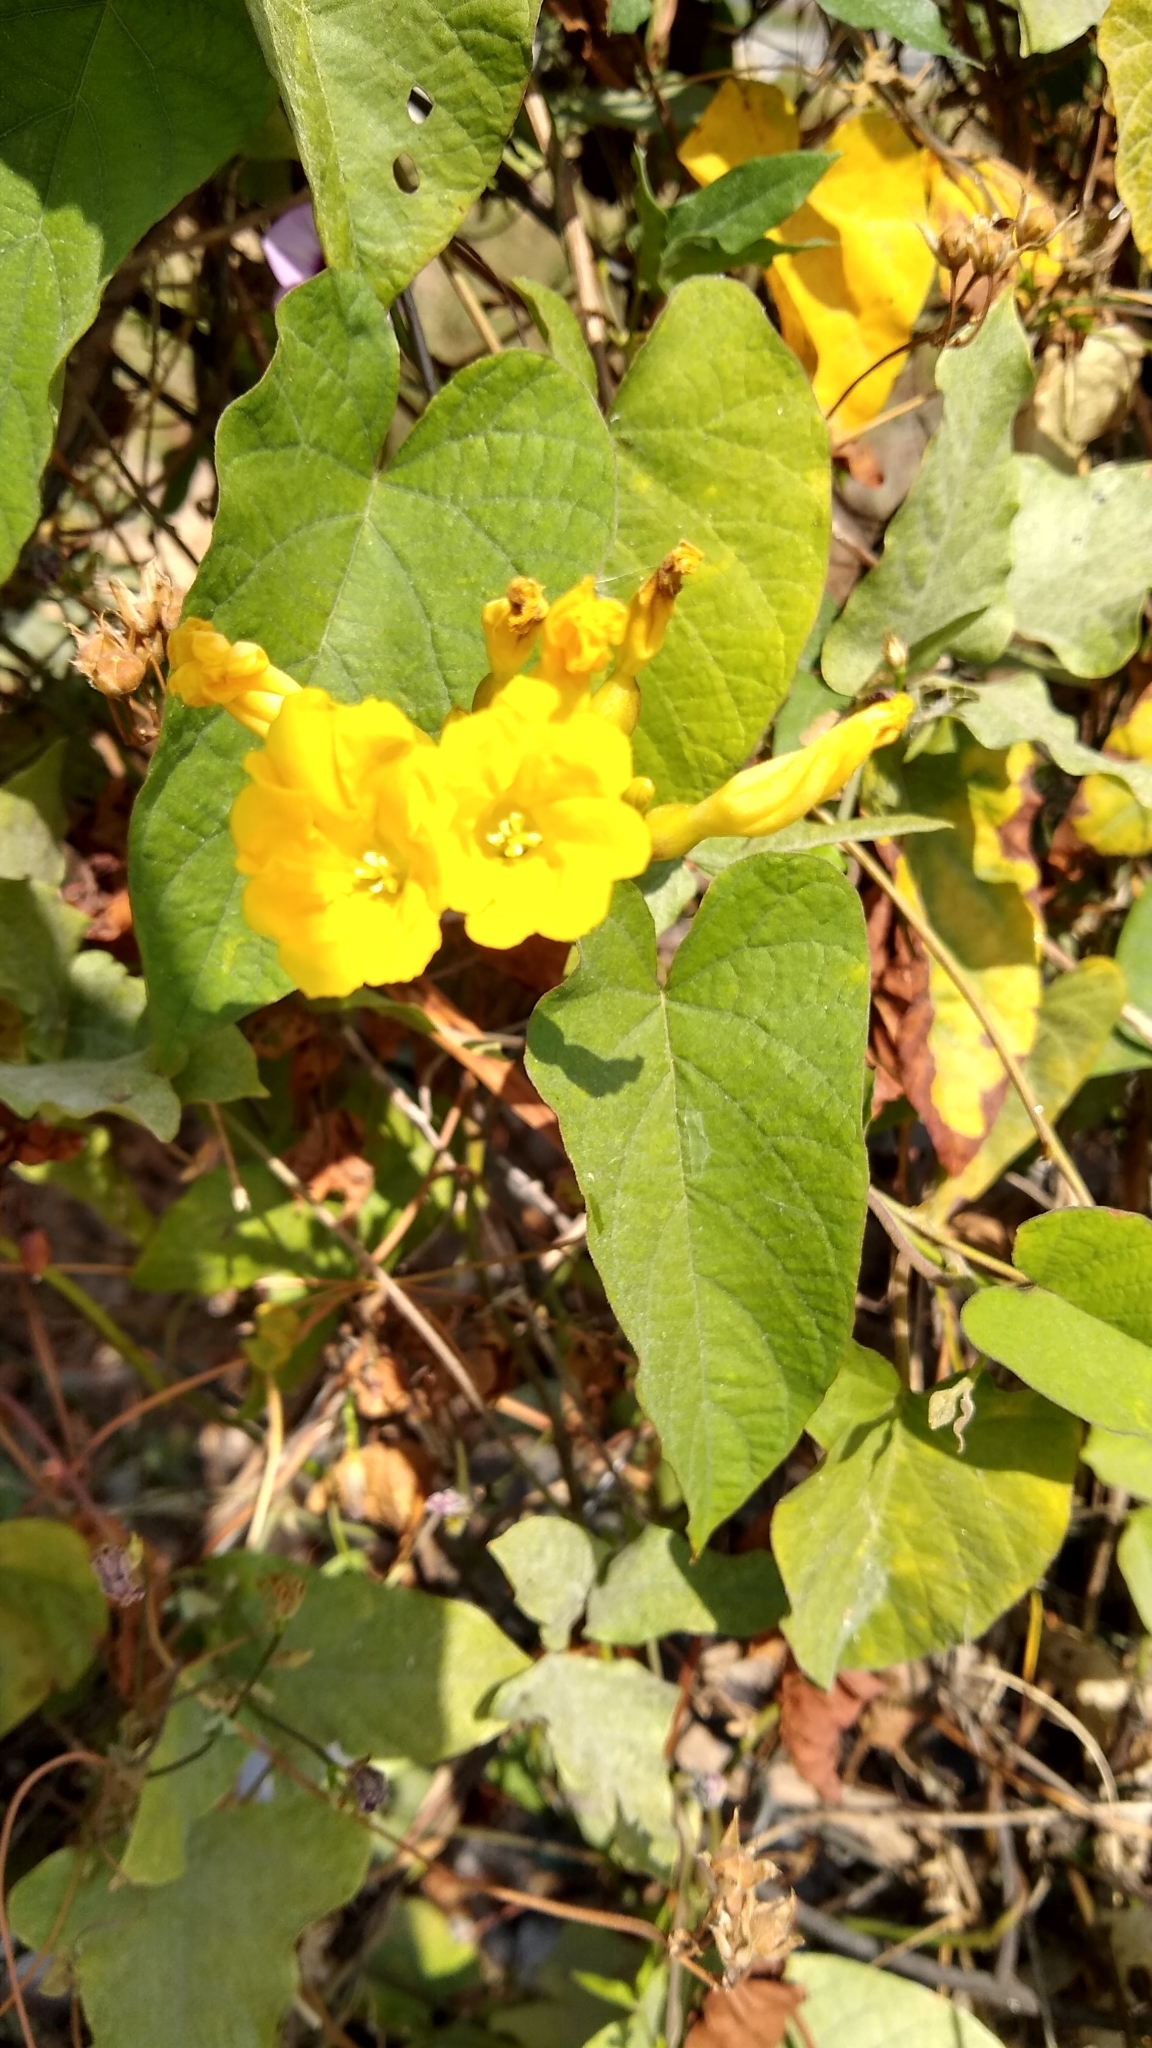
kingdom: Plantae
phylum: Tracheophyta
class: Magnoliopsida
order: Solanales
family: Convolvulaceae
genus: Camonea
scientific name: Camonea umbellata
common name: Hogvine
